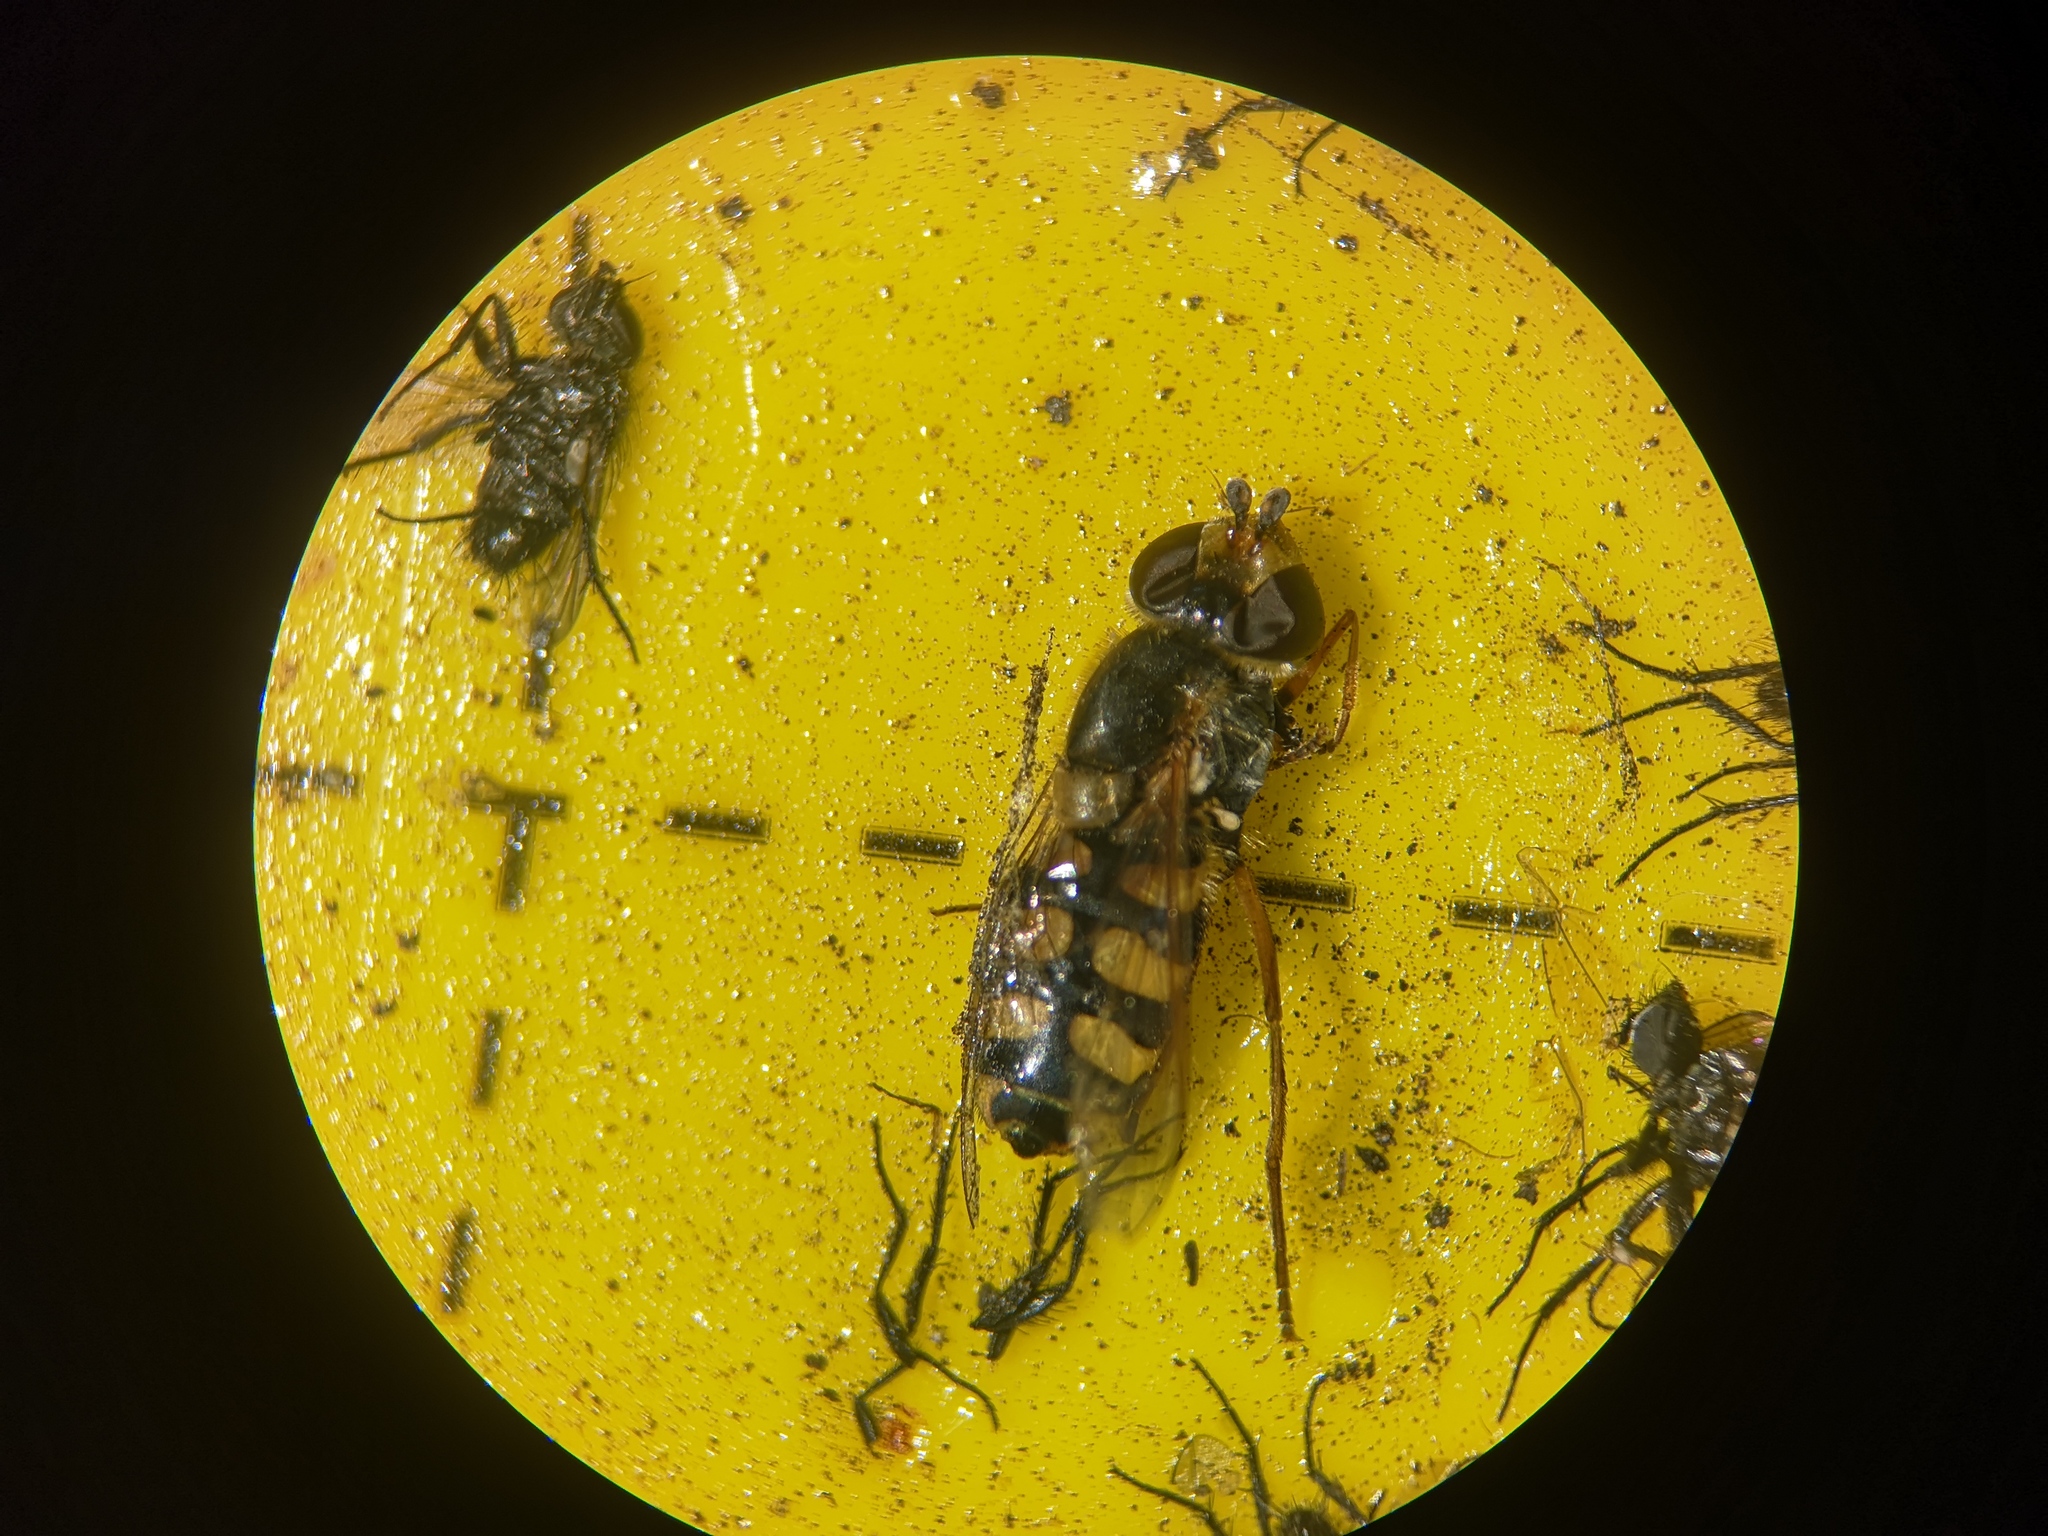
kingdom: Animalia
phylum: Arthropoda
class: Insecta
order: Diptera
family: Syrphidae
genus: Eupeodes
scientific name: Eupeodes corollae
